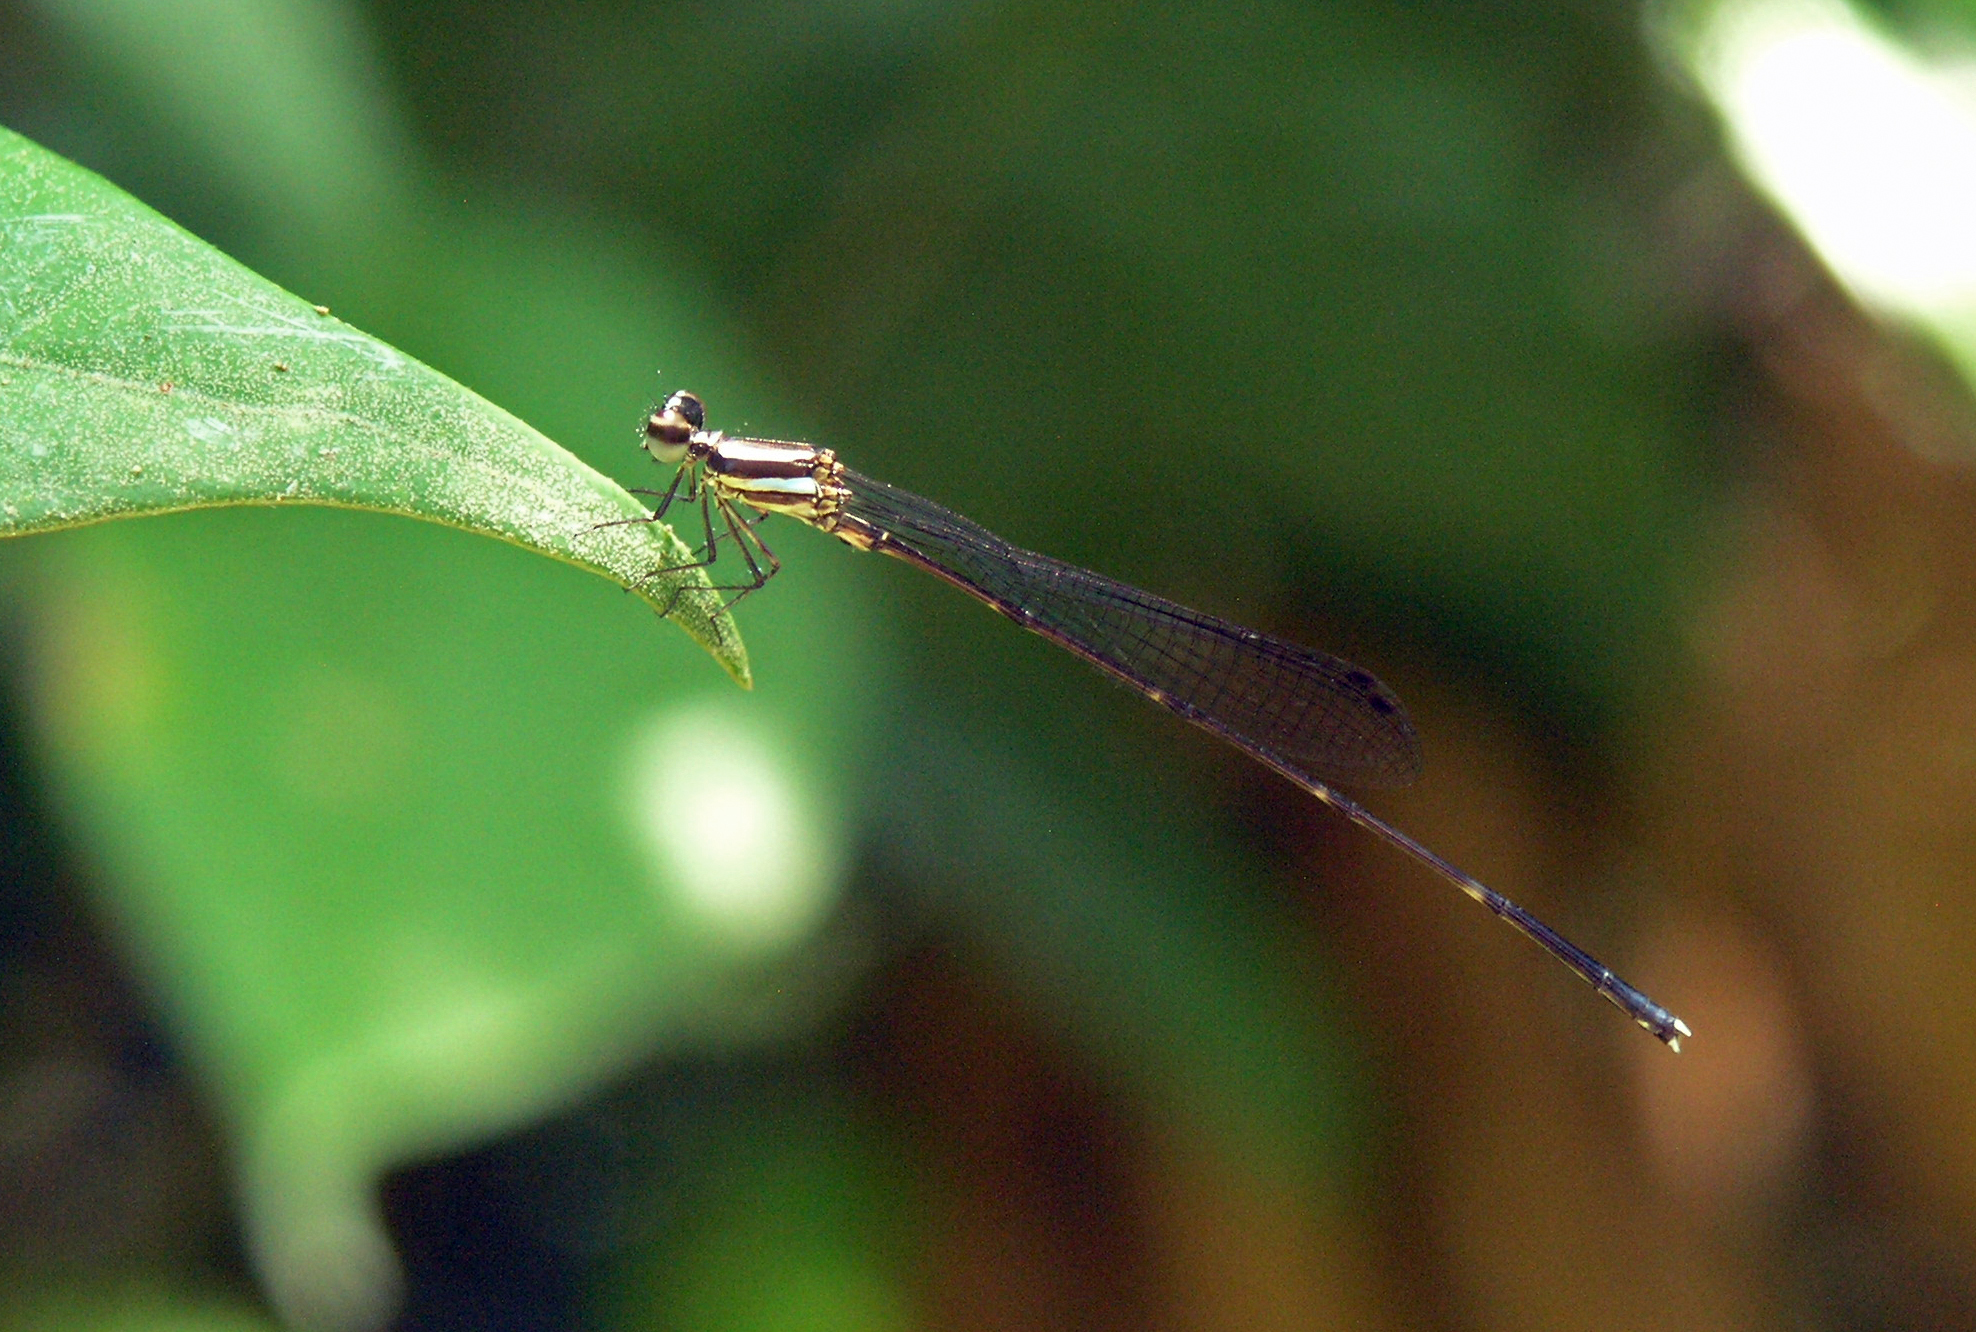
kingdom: Animalia
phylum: Arthropoda
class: Insecta
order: Odonata
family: Platycnemididae
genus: Prodasineura
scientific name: Prodasineura collaris
